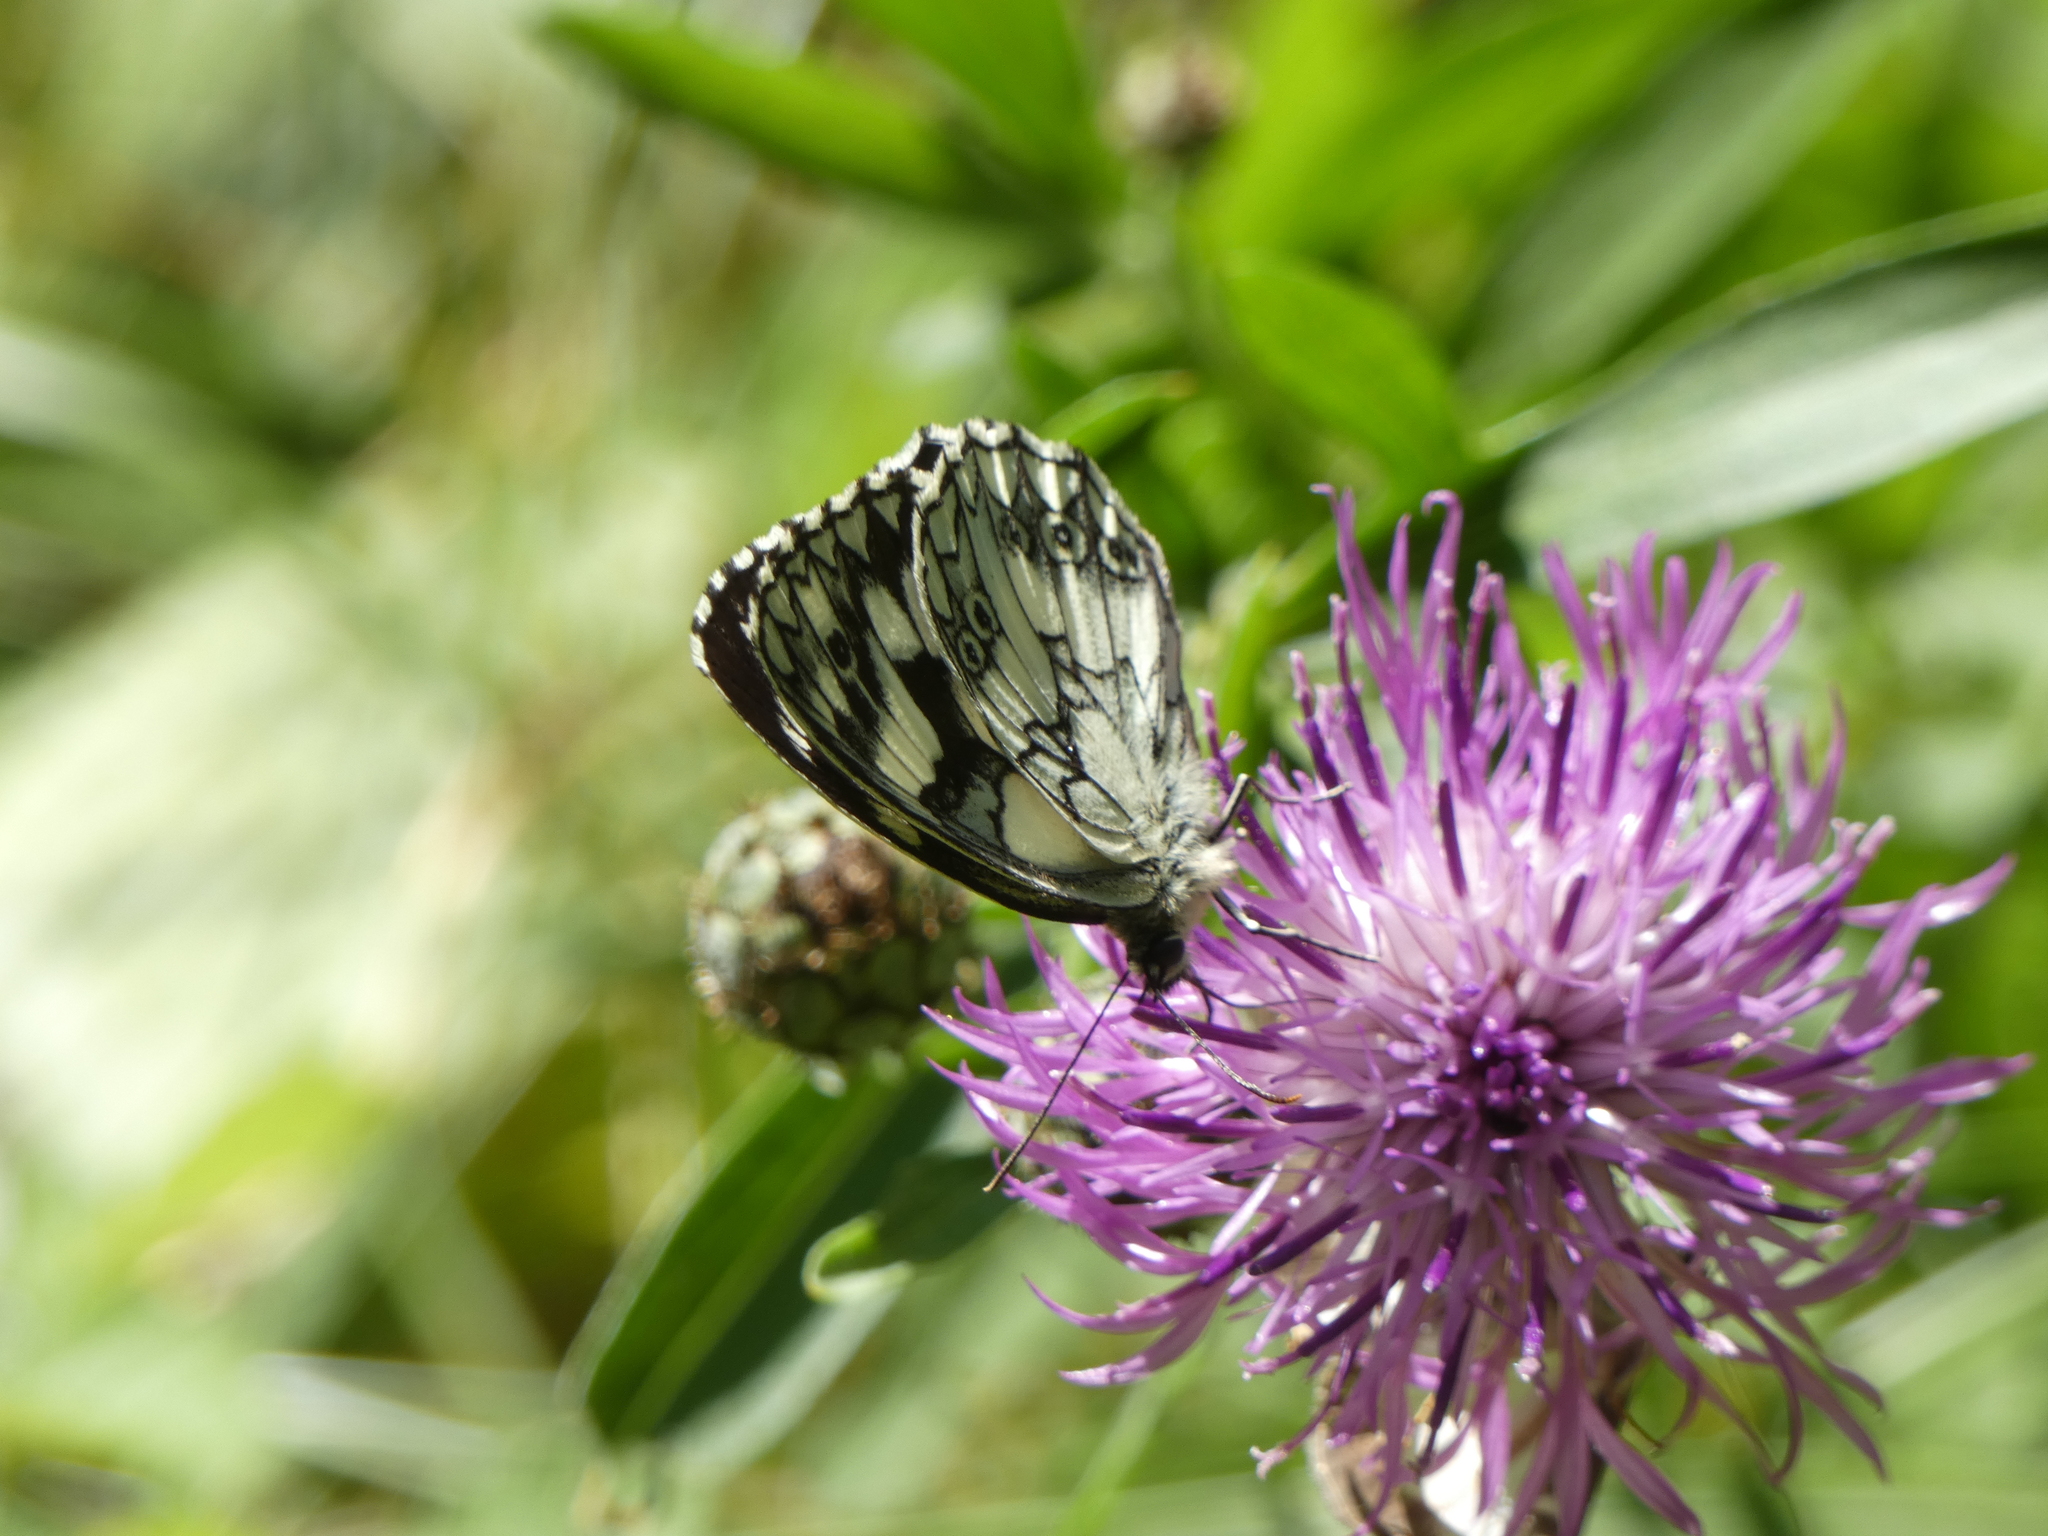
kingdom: Animalia
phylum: Arthropoda
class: Insecta
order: Lepidoptera
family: Nymphalidae
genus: Melanargia
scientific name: Melanargia galathea
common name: Marbled white
